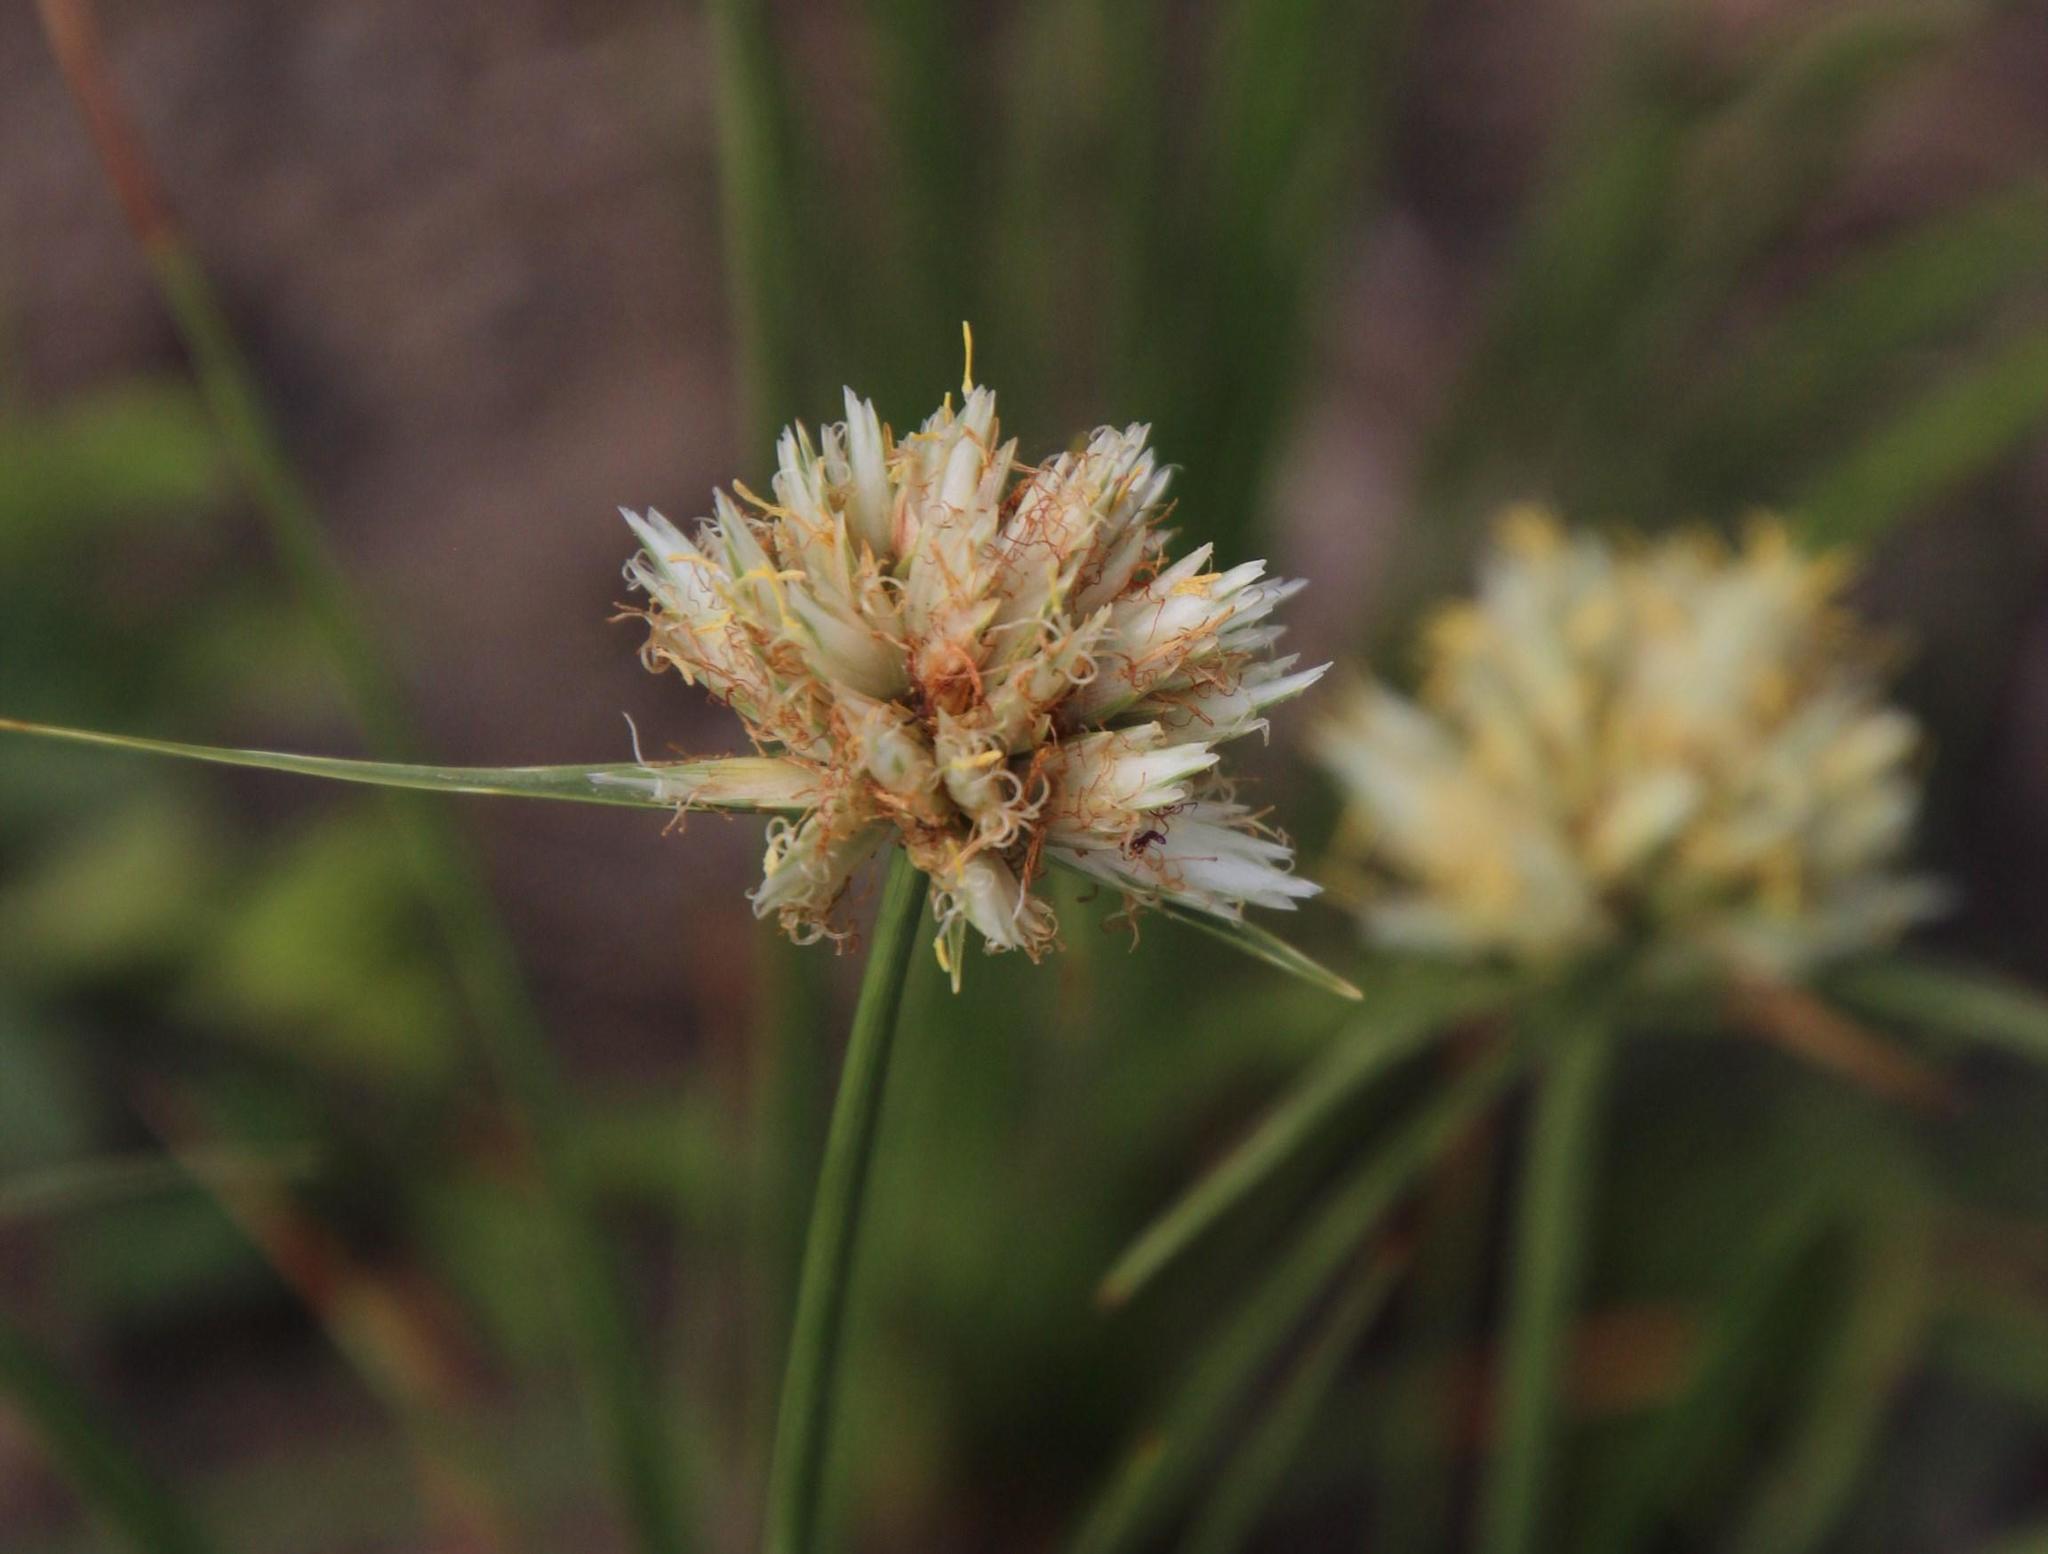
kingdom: Plantae
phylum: Tracheophyta
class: Liliopsida
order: Poales
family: Cyperaceae
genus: Cyperus
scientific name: Cyperus niveus
